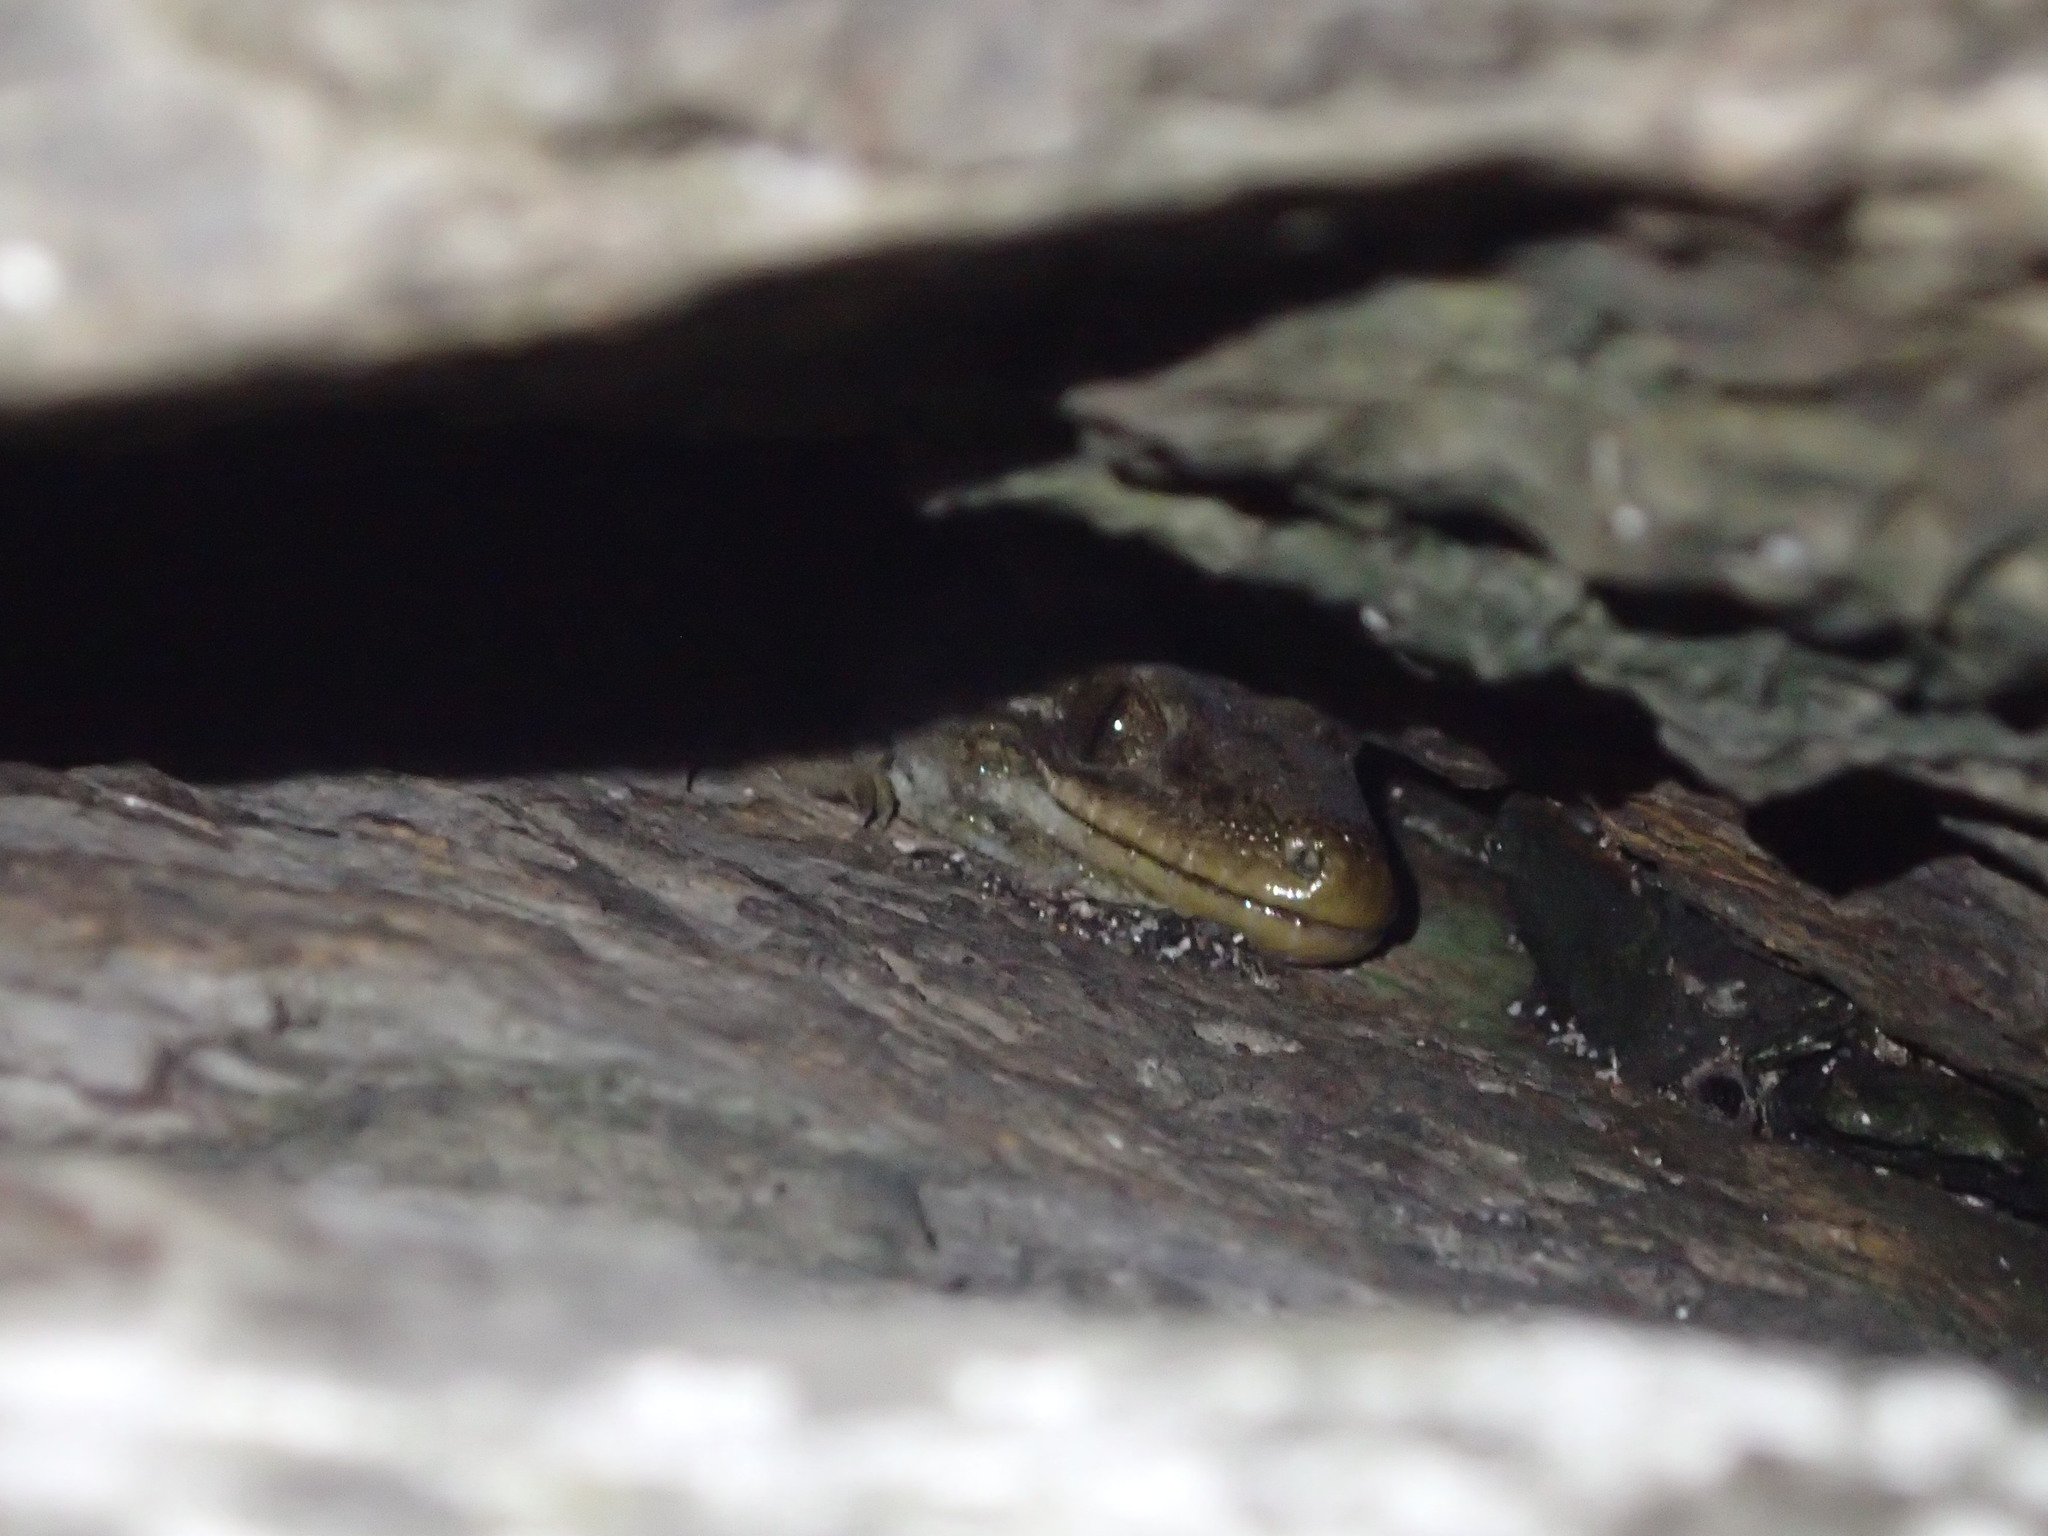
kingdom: Animalia
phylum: Chordata
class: Squamata
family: Diplodactylidae
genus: Hoplodactylus
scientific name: Hoplodactylus duvaucelii
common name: Duvaucel's gecko
